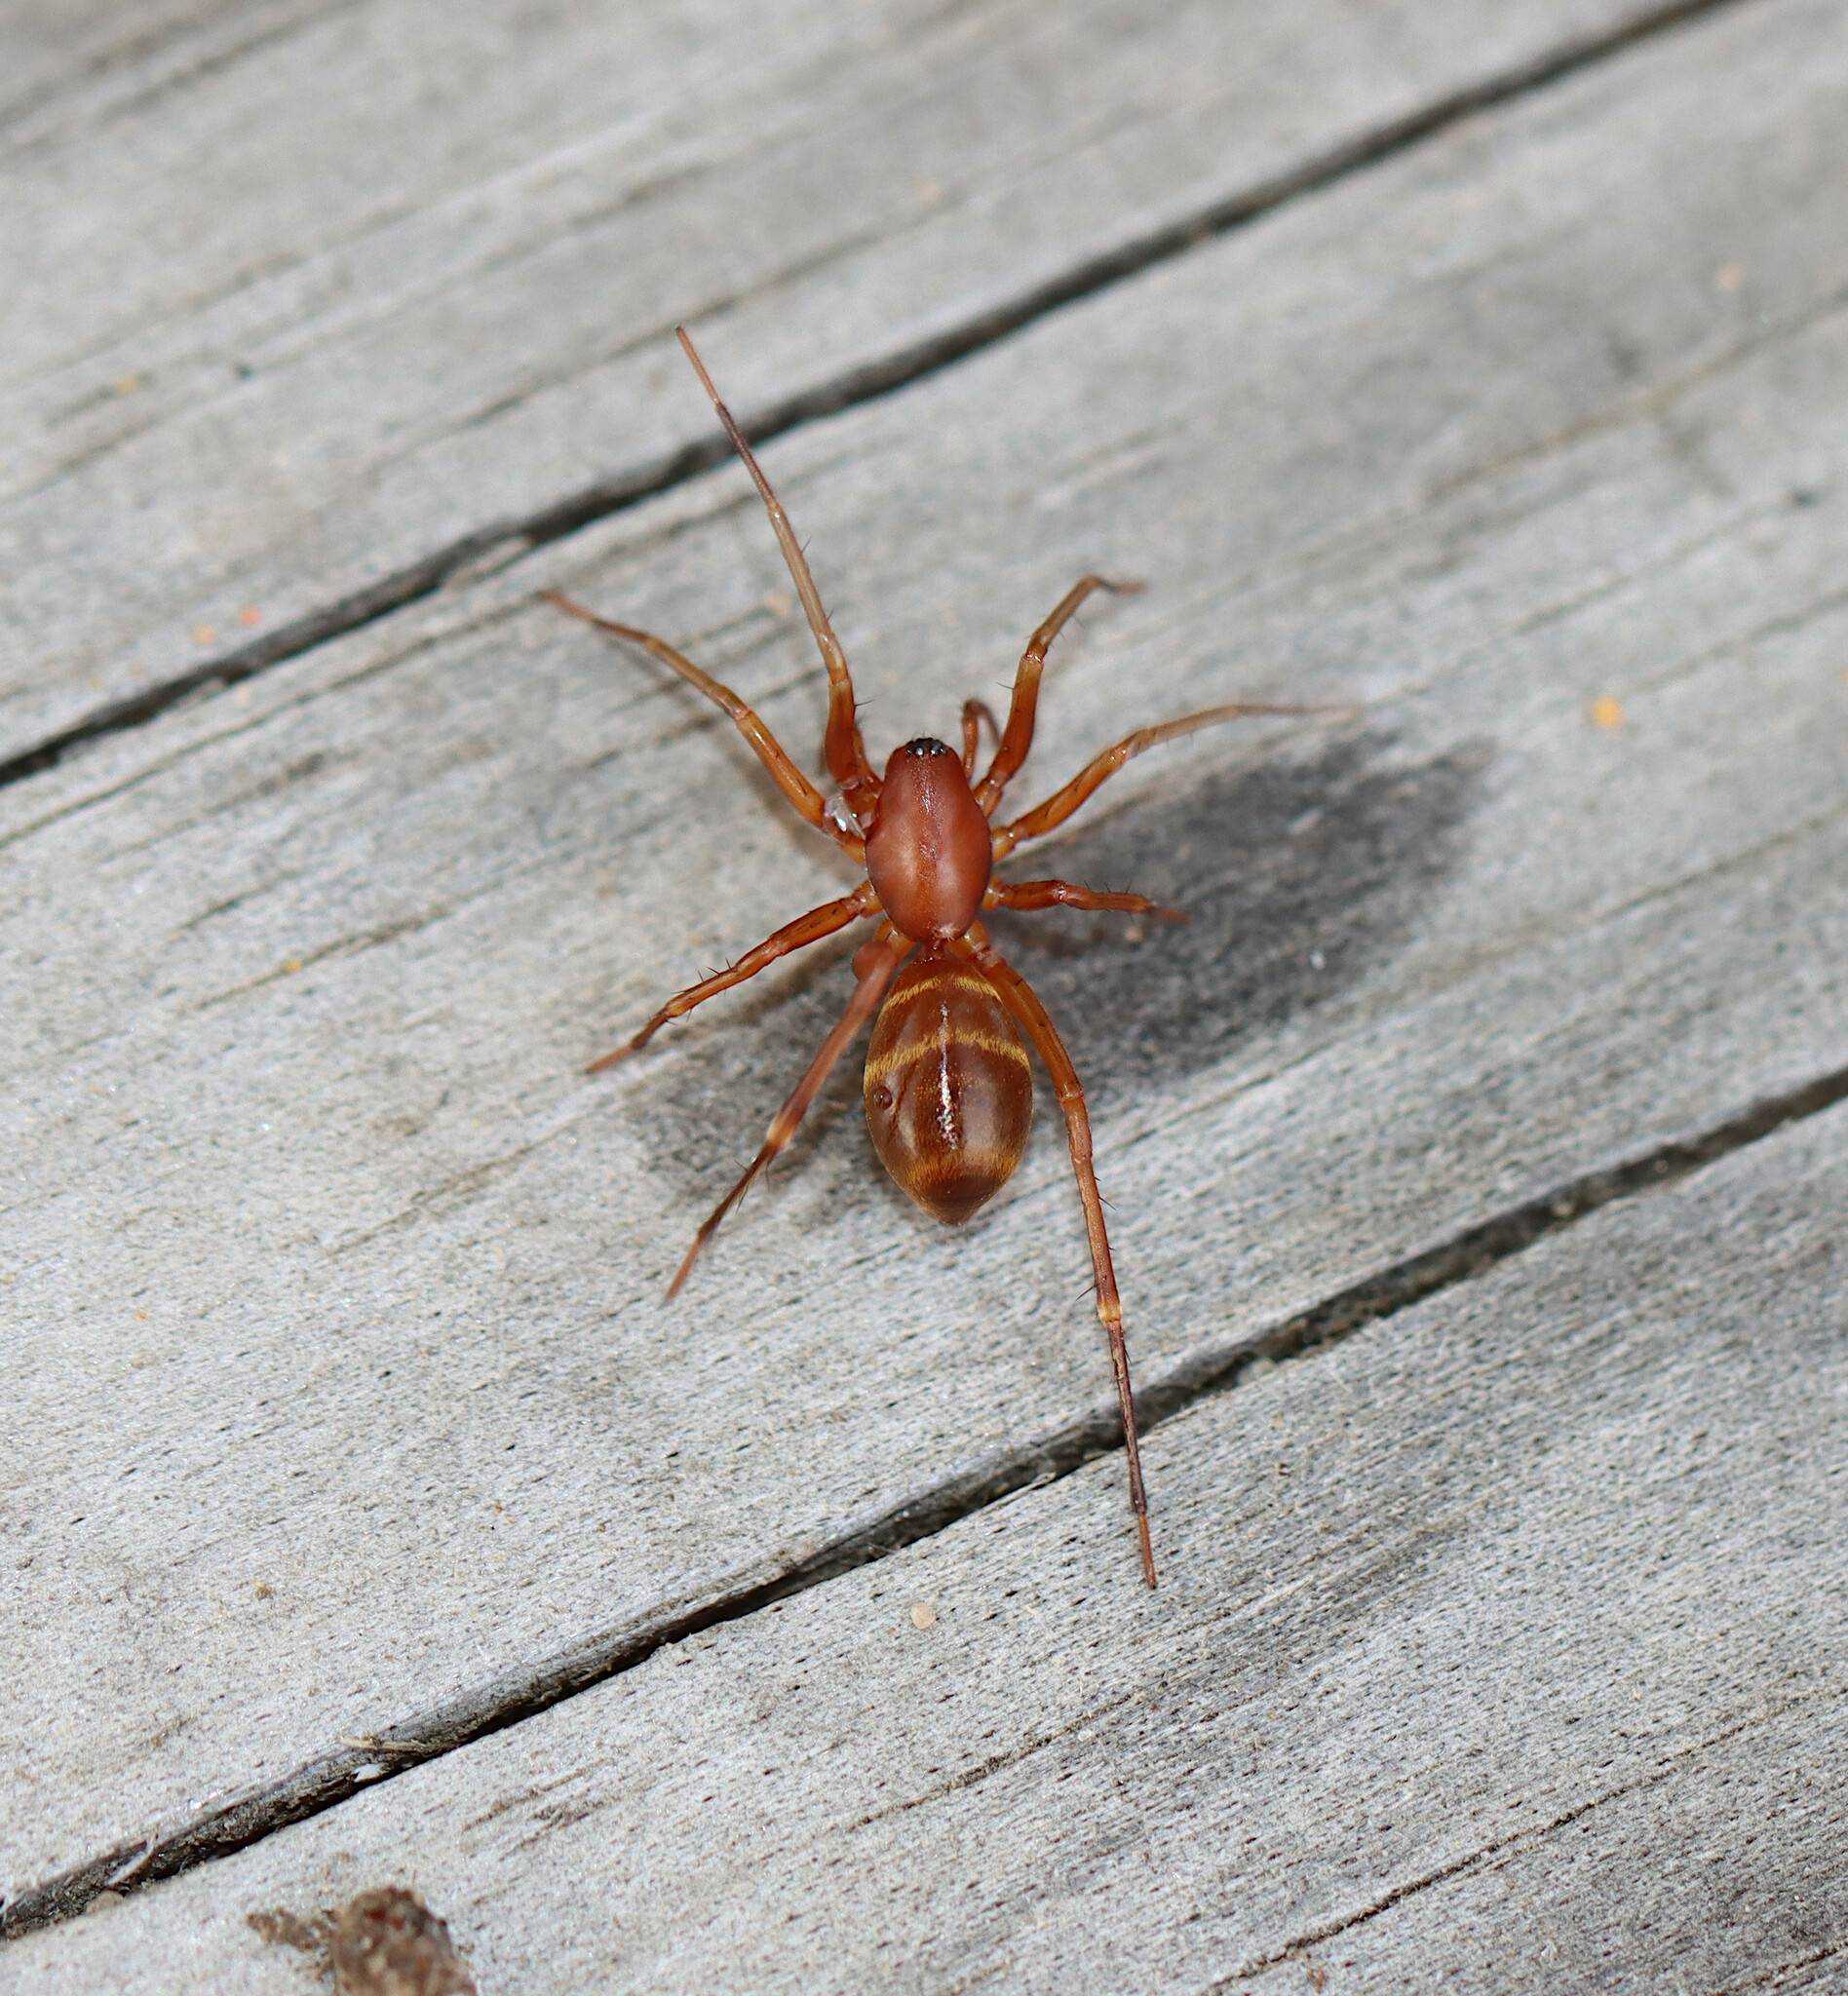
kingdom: Animalia
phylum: Arthropoda
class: Arachnida
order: Araneae
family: Corinnidae
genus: Castianeira
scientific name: Castianeira trilineata
